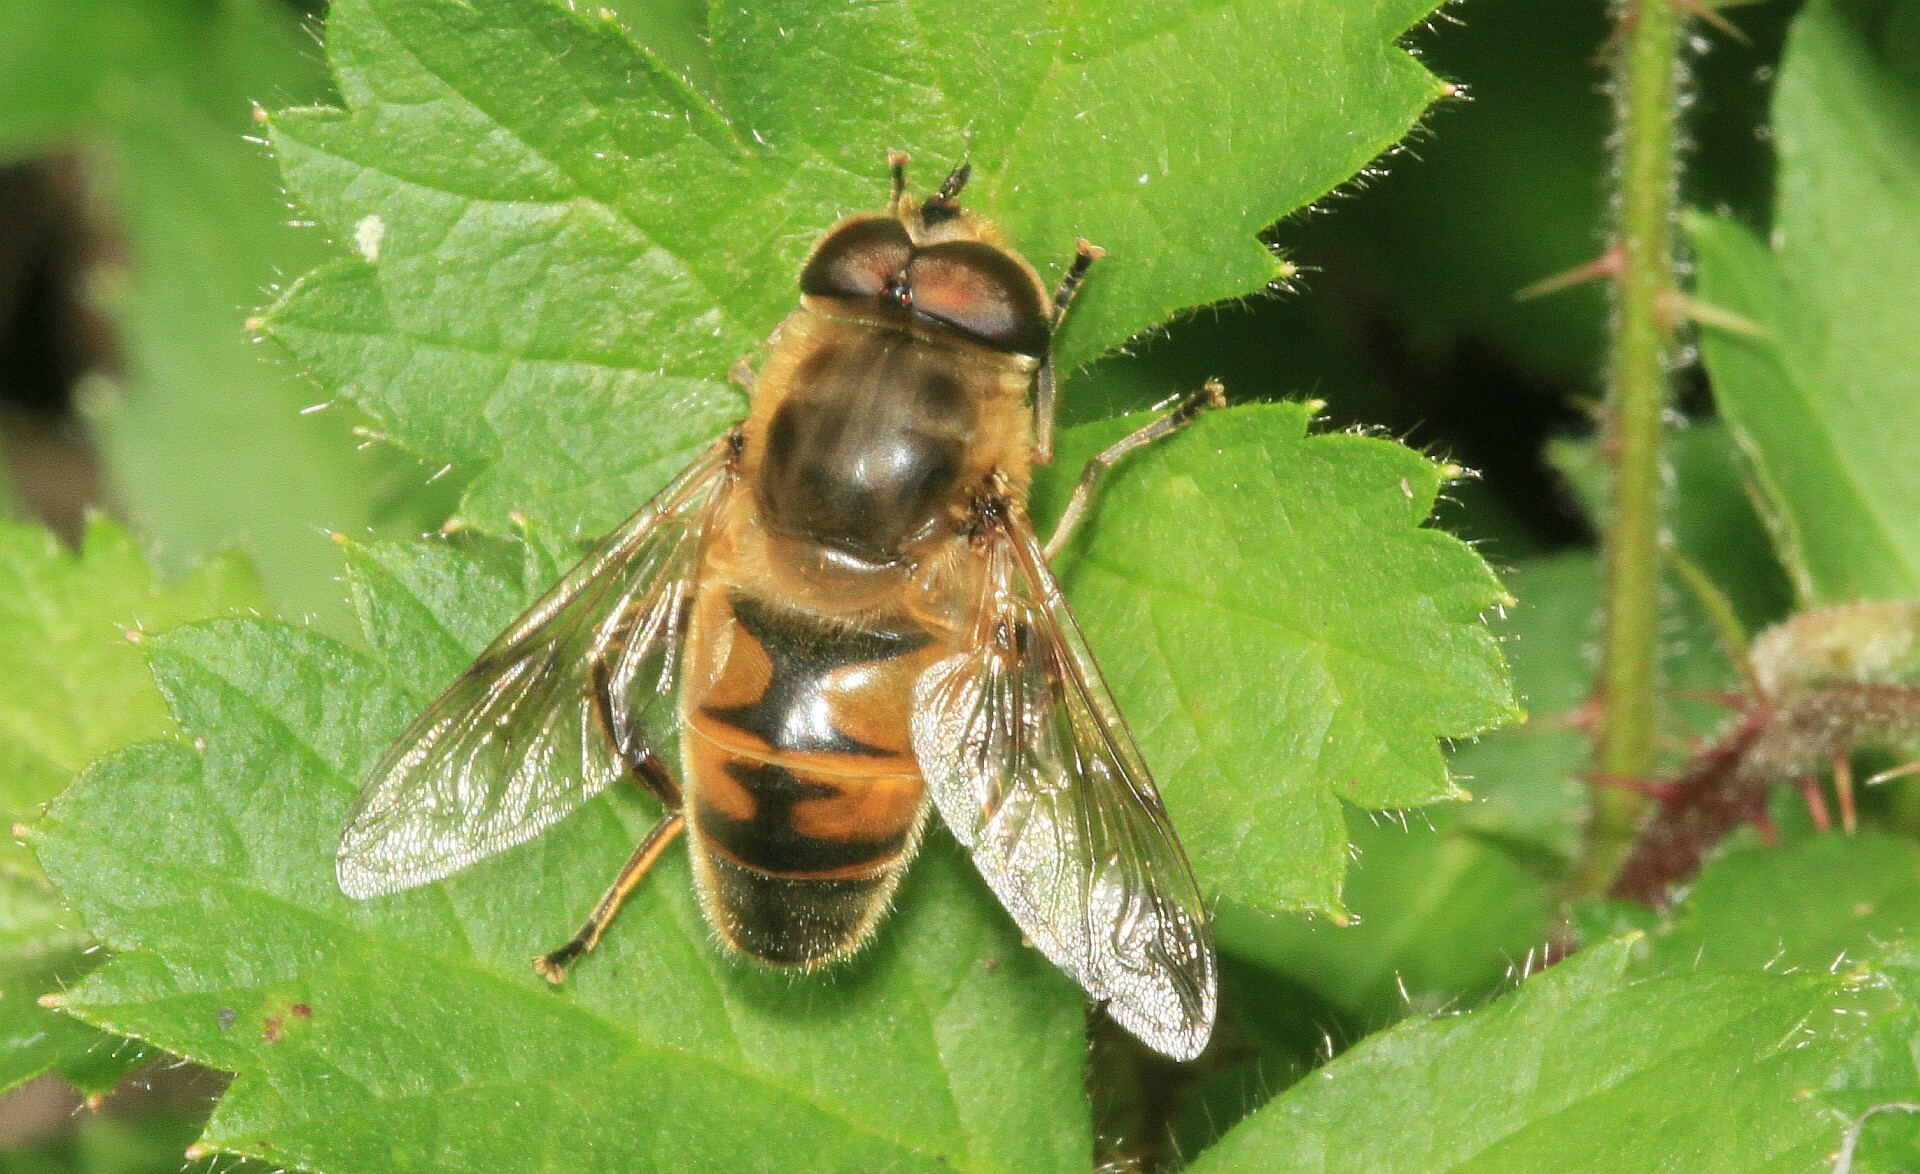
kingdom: Animalia
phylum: Arthropoda
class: Insecta
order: Diptera
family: Syrphidae
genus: Eristalis
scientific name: Eristalis tenax
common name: Drone fly
